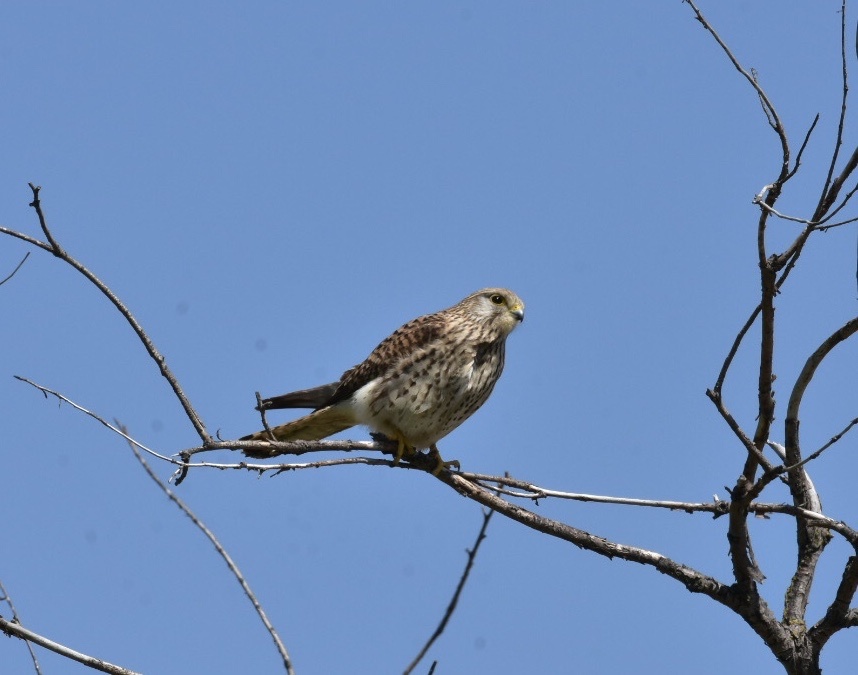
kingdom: Animalia
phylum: Chordata
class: Aves
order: Falconiformes
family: Falconidae
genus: Falco
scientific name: Falco tinnunculus
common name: Common kestrel
